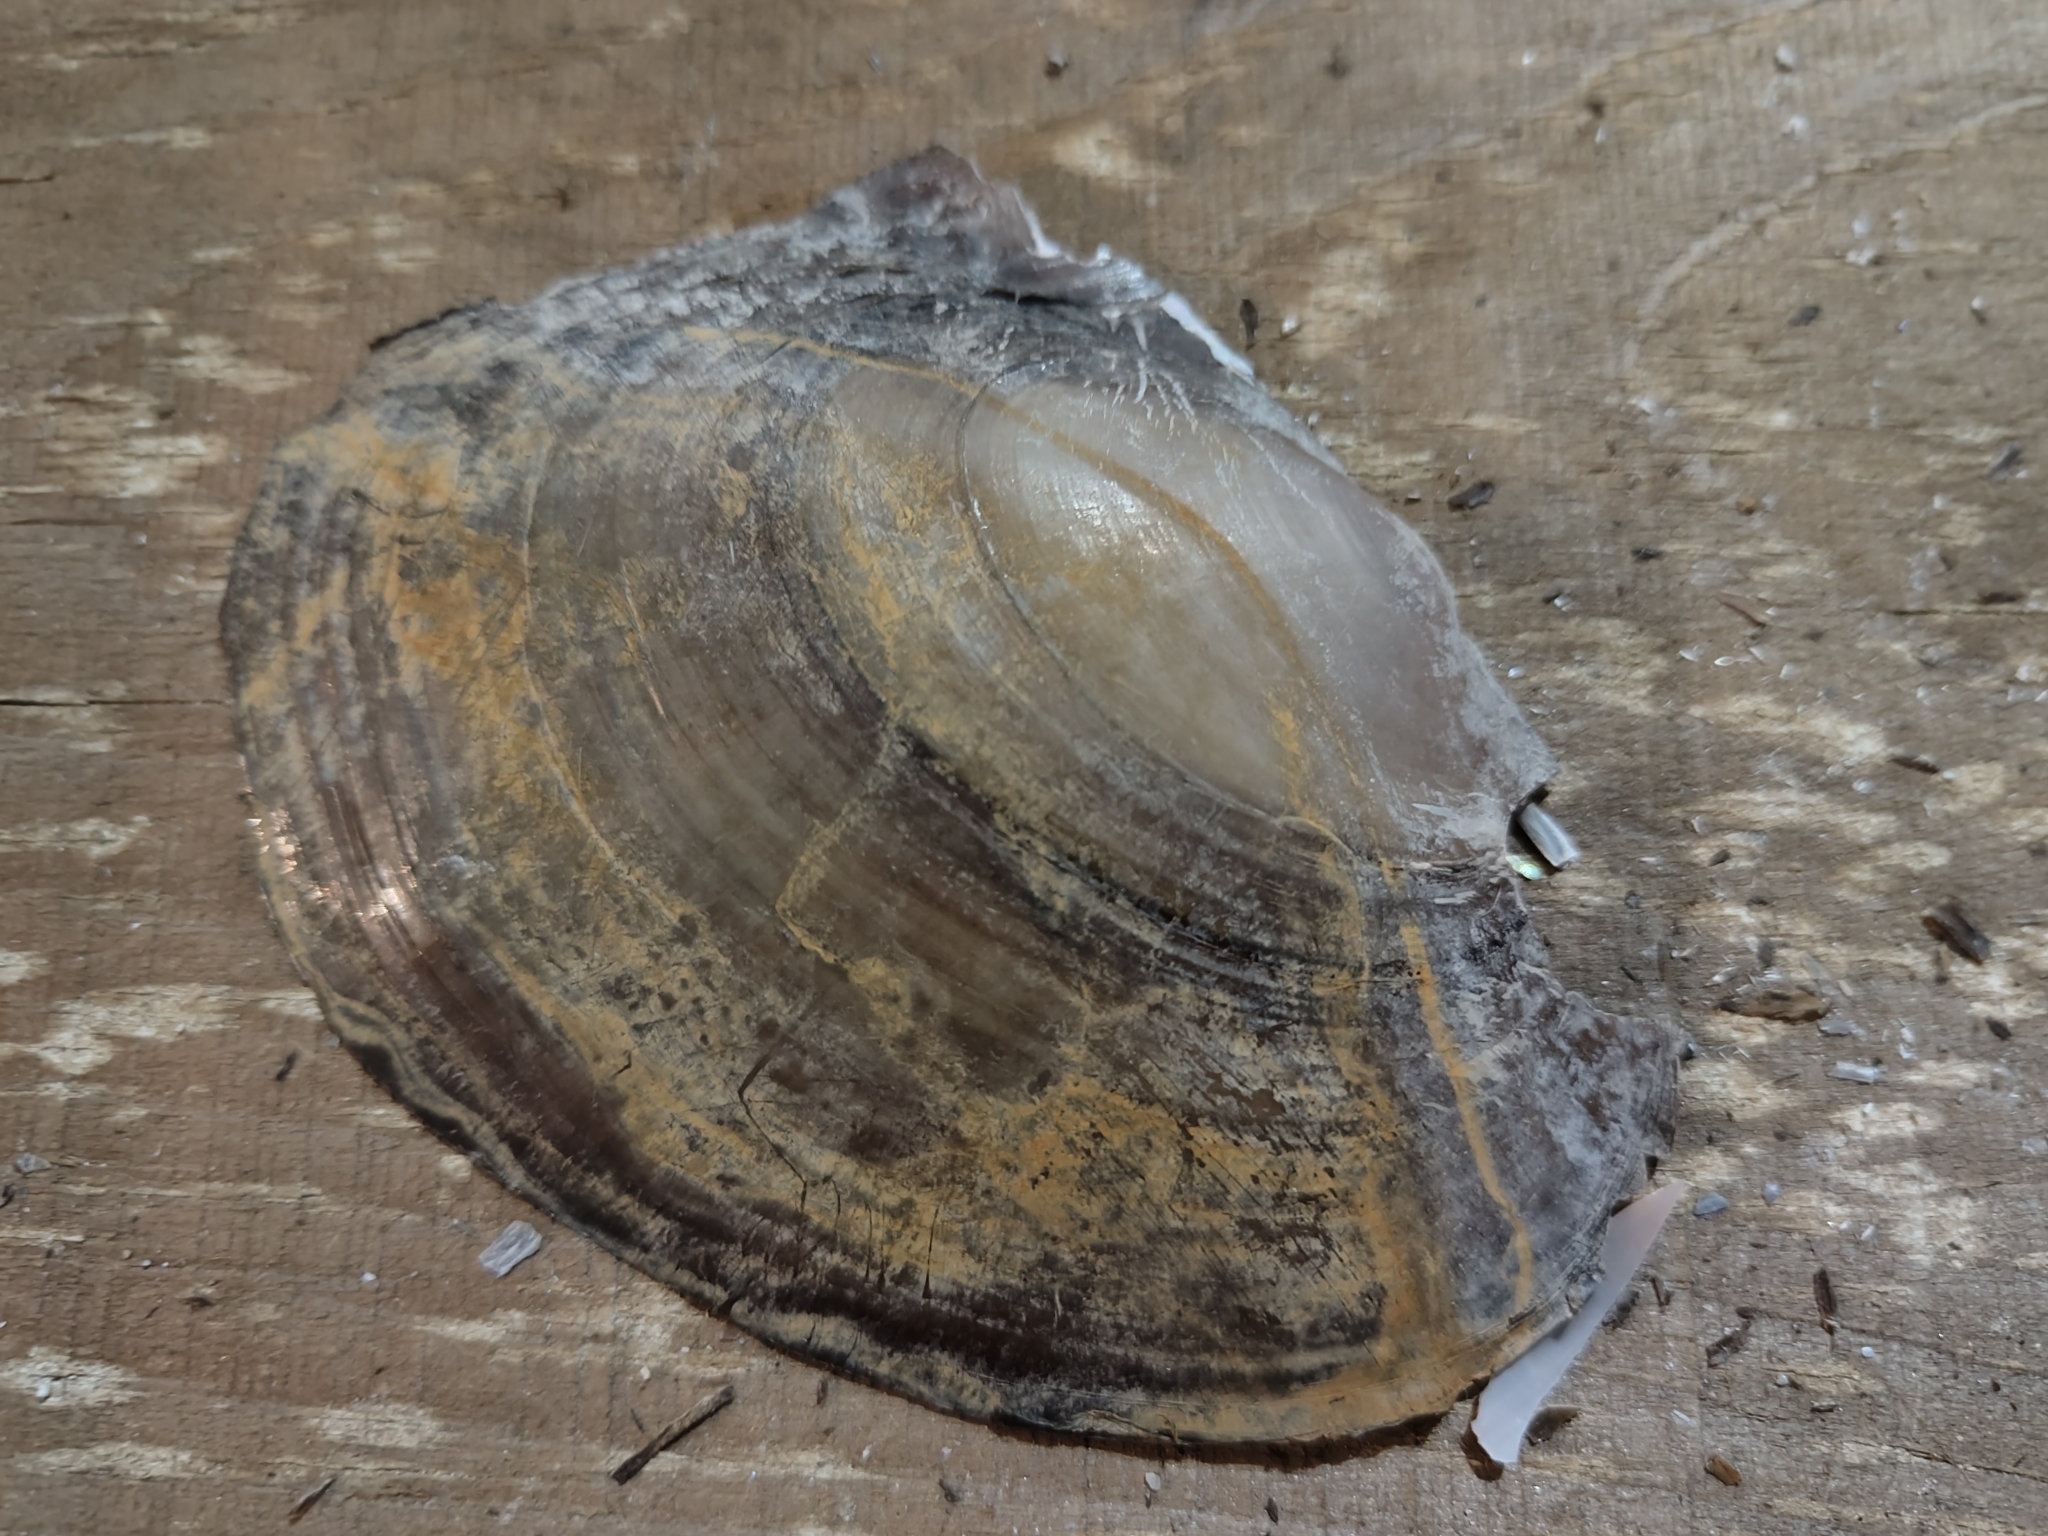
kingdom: Animalia
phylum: Mollusca
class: Bivalvia
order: Unionida
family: Unionidae
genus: Potamilus
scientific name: Potamilus ohiensis
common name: Pink papershell
